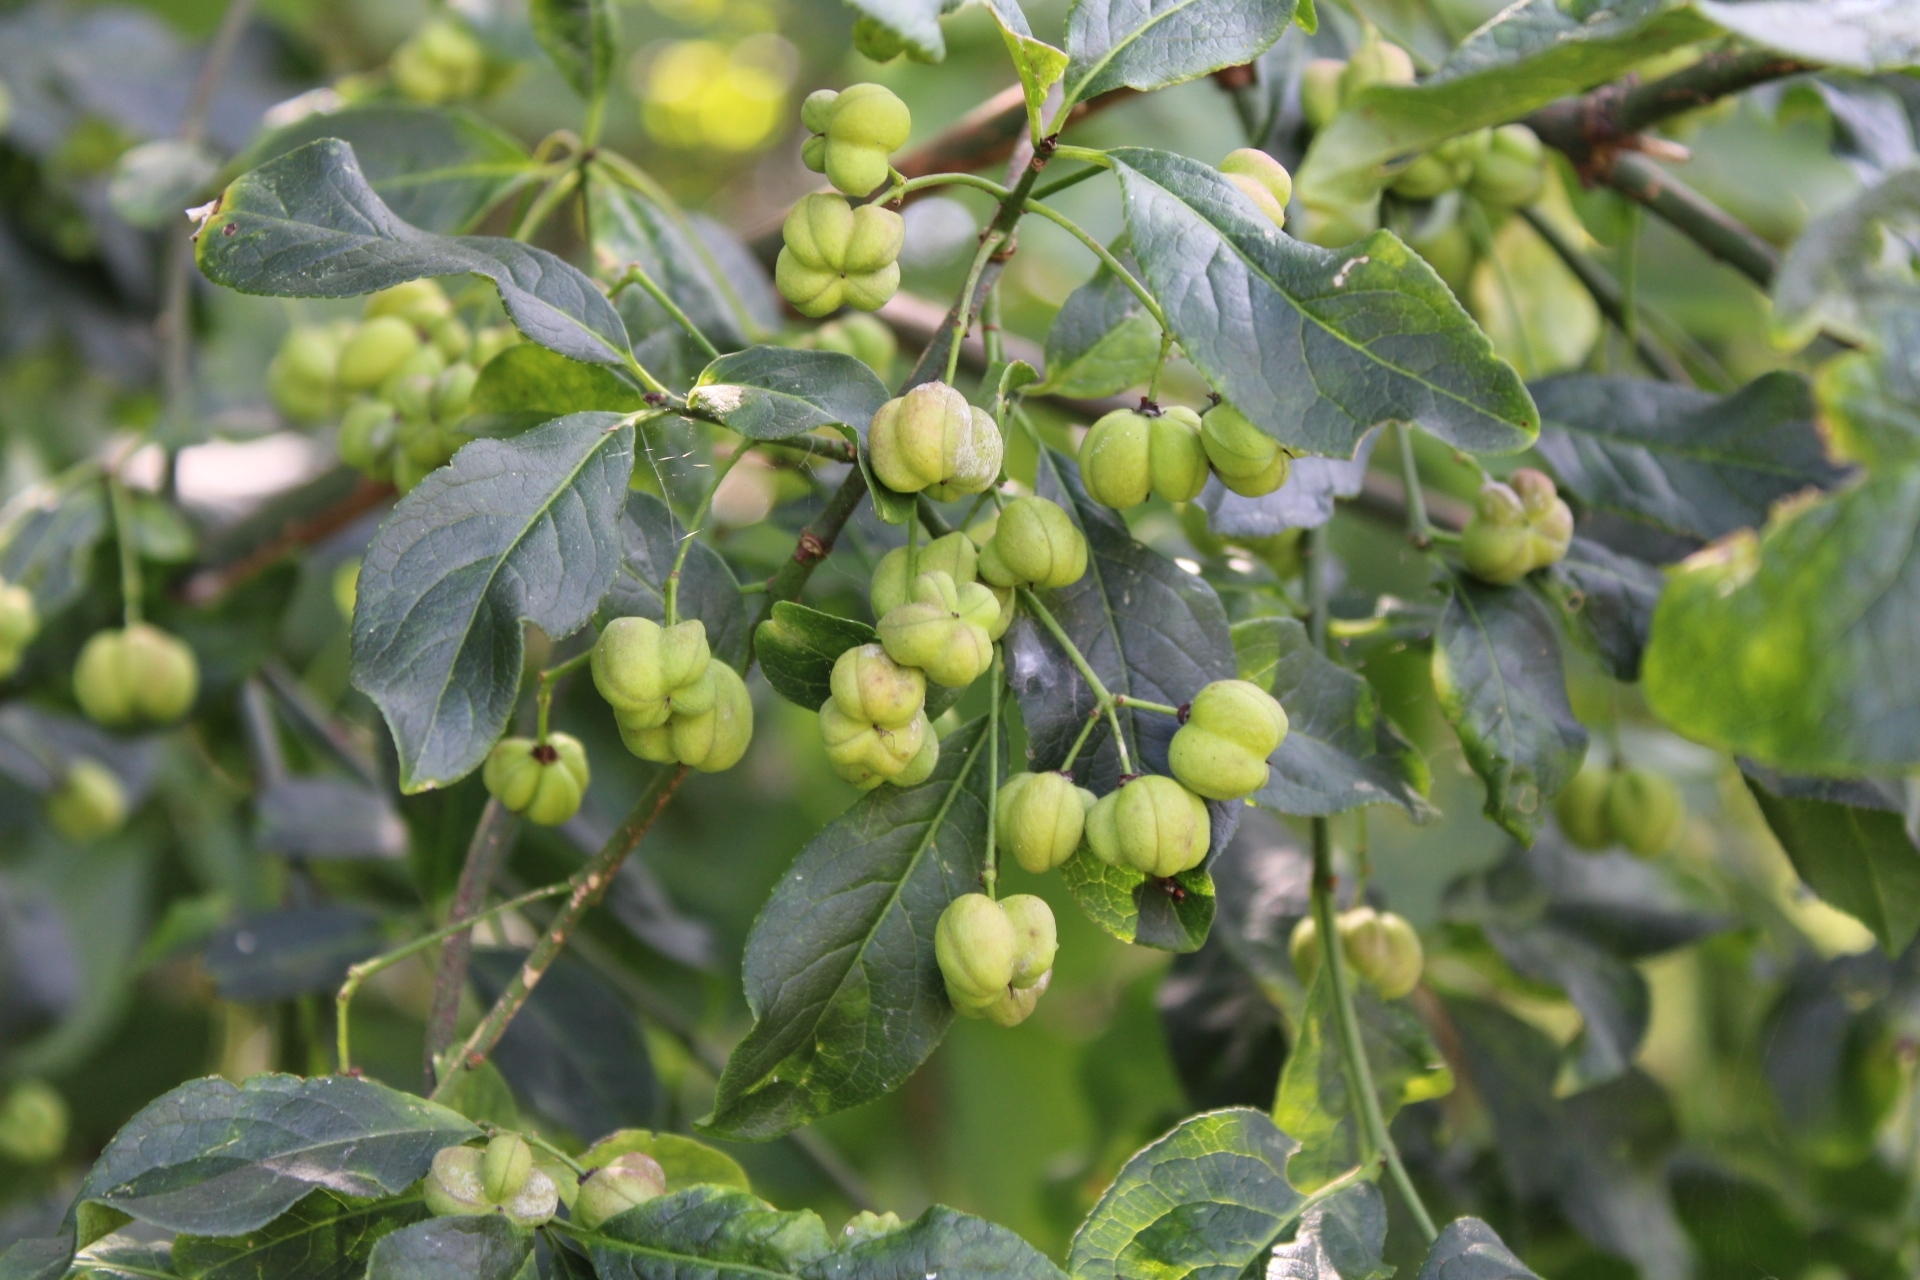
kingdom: Plantae
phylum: Tracheophyta
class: Magnoliopsida
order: Celastrales
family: Celastraceae
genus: Euonymus
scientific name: Euonymus europaeus
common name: Spindle
